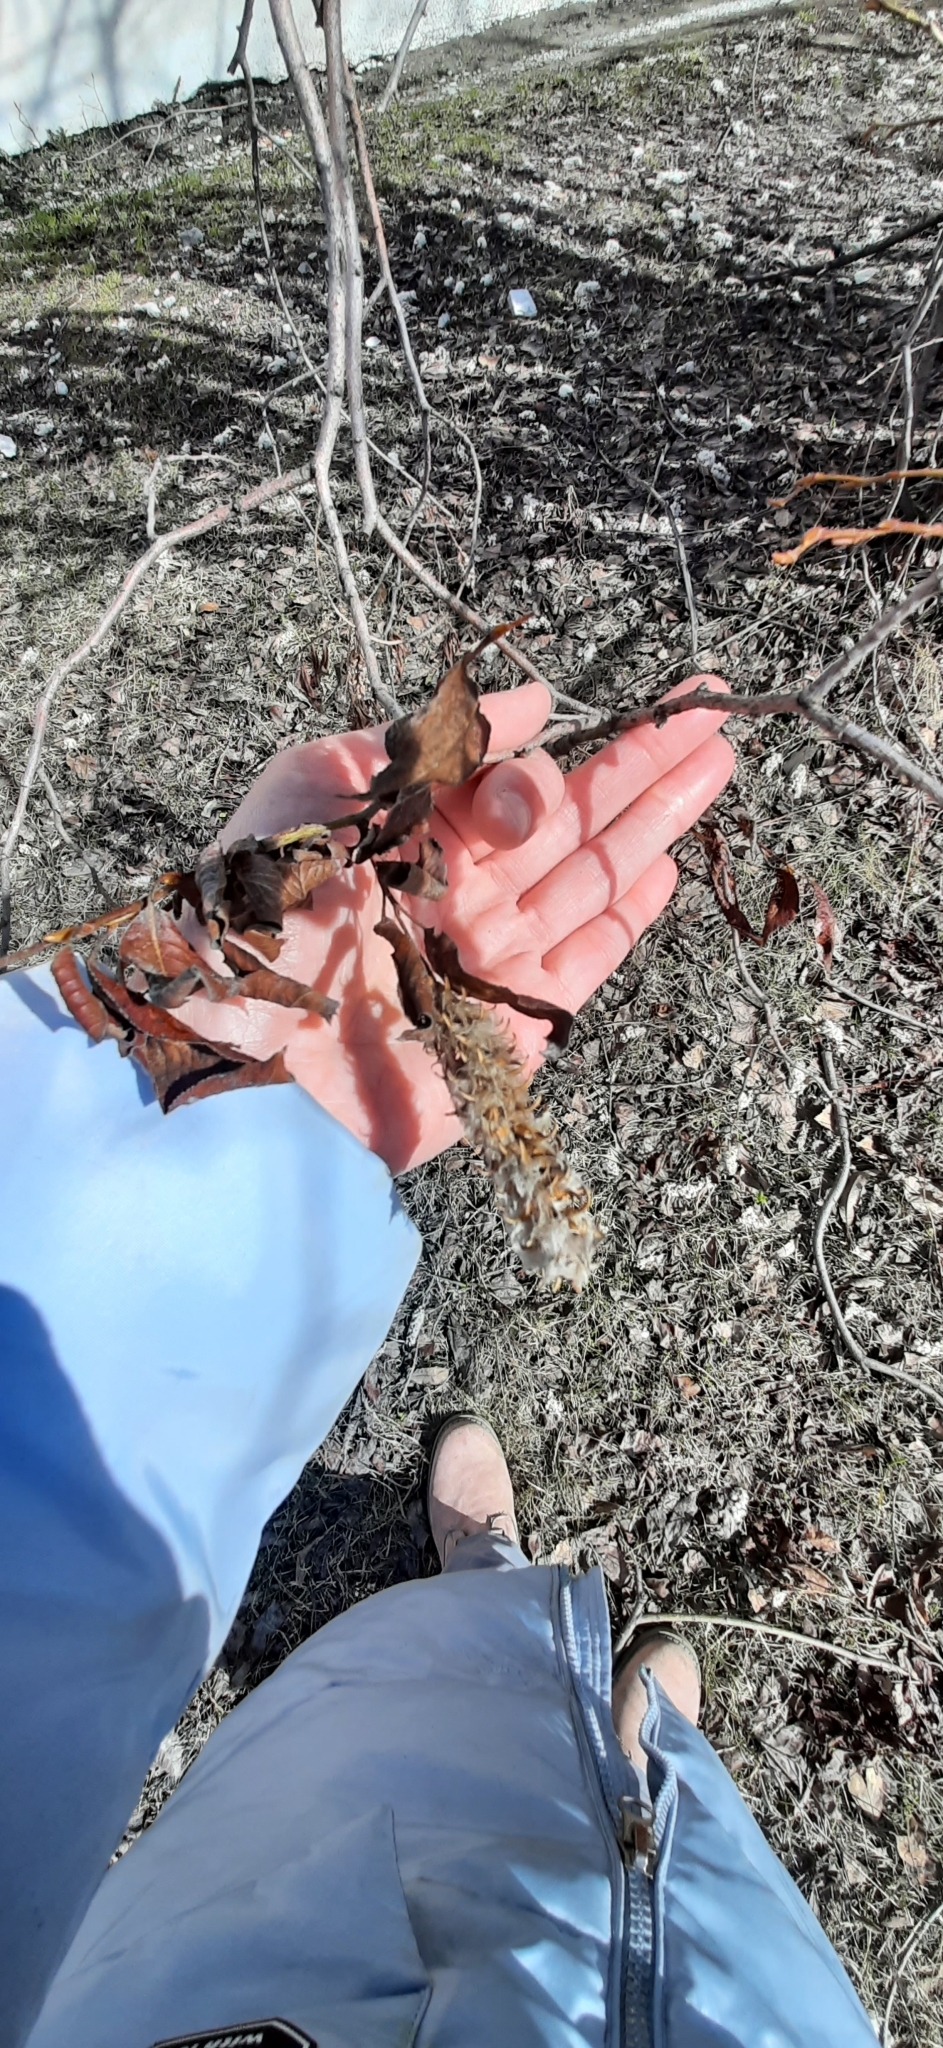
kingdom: Plantae
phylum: Tracheophyta
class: Magnoliopsida
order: Malpighiales
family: Salicaceae
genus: Salix
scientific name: Salix pentandra
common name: Bay willow
